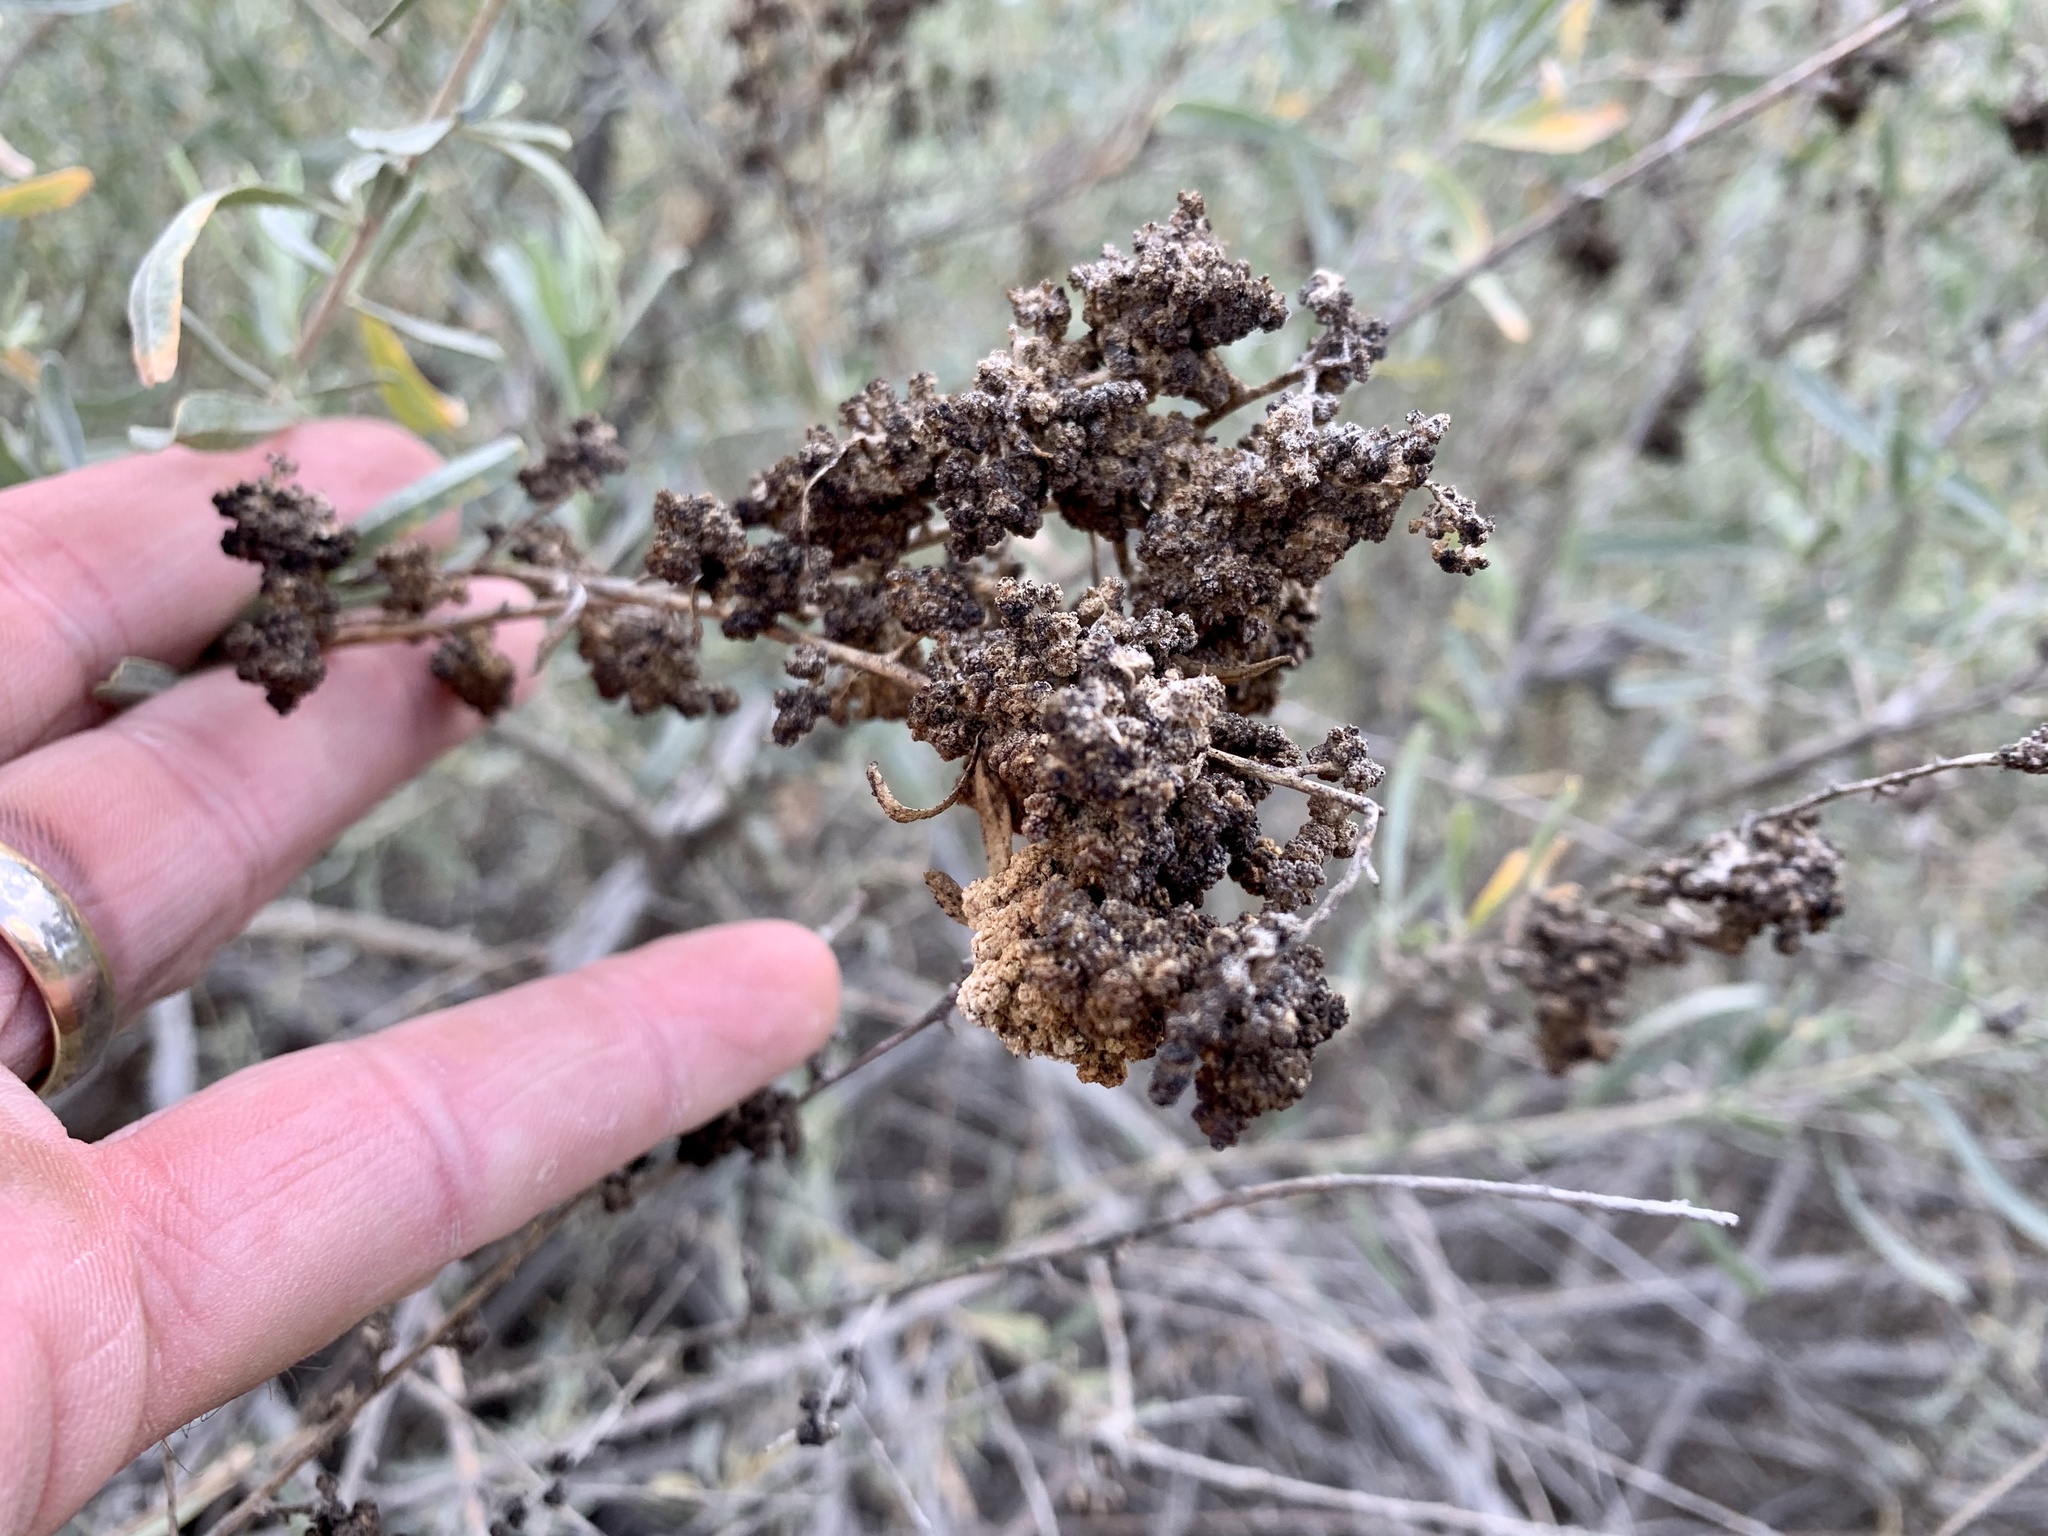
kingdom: Plantae
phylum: Tracheophyta
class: Magnoliopsida
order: Caryophyllales
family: Amaranthaceae
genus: Atriplex
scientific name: Atriplex canescens
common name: Four-wing saltbush
